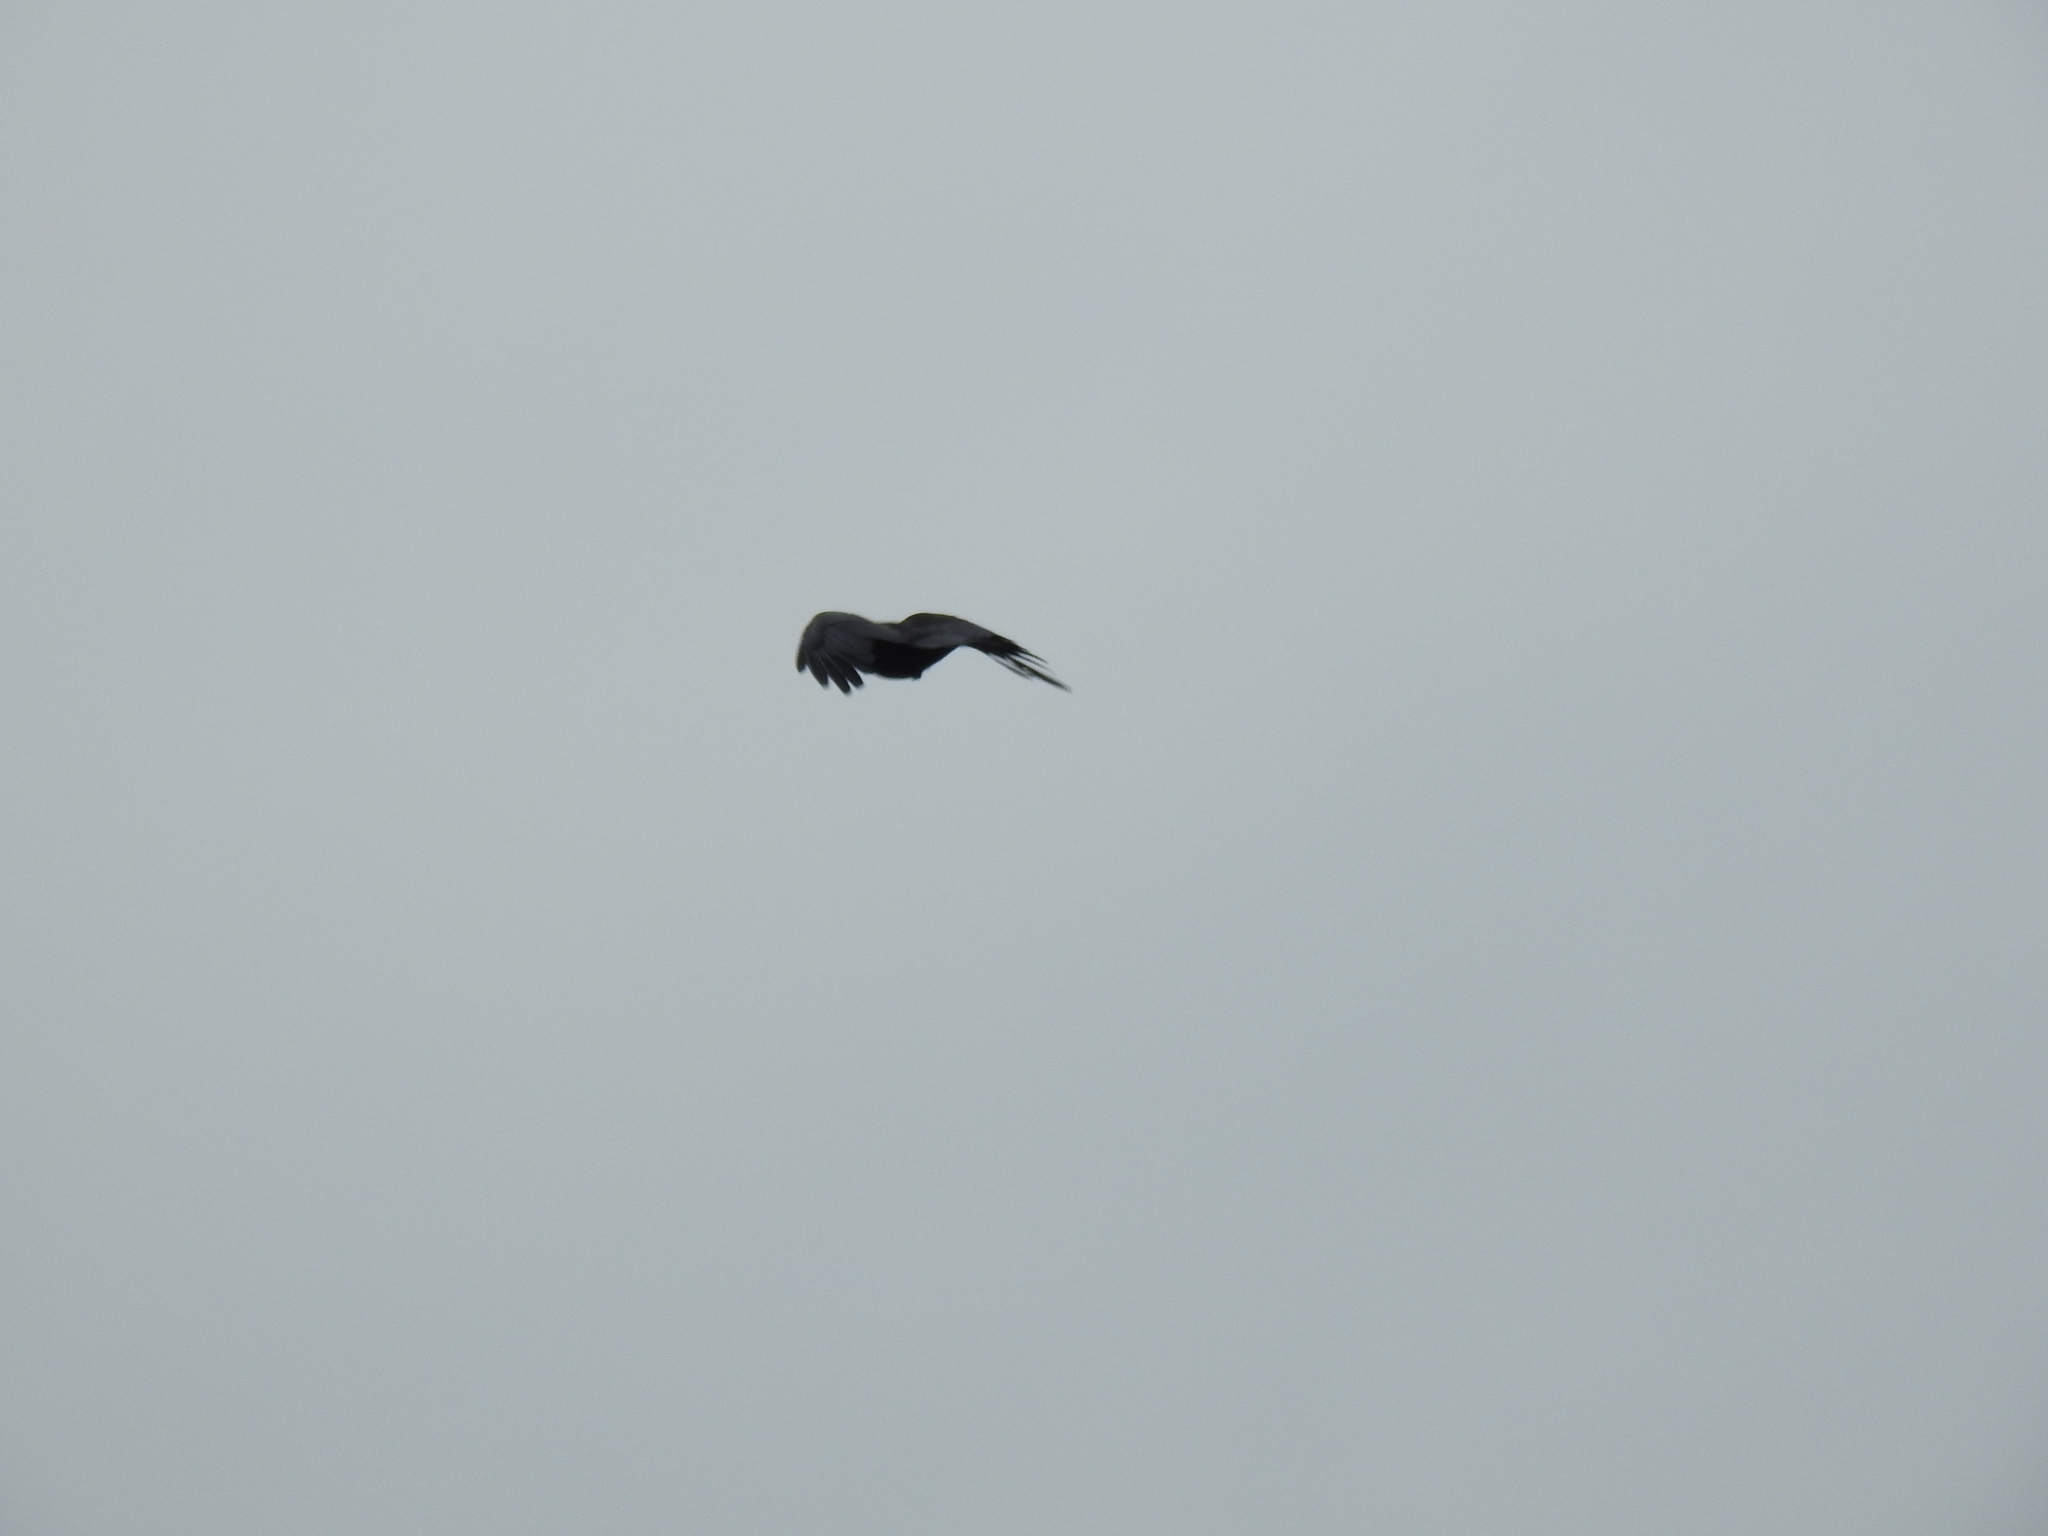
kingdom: Animalia
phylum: Chordata
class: Aves
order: Passeriformes
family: Corvidae
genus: Corvus
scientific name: Corvus brachyrhynchos
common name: American crow
